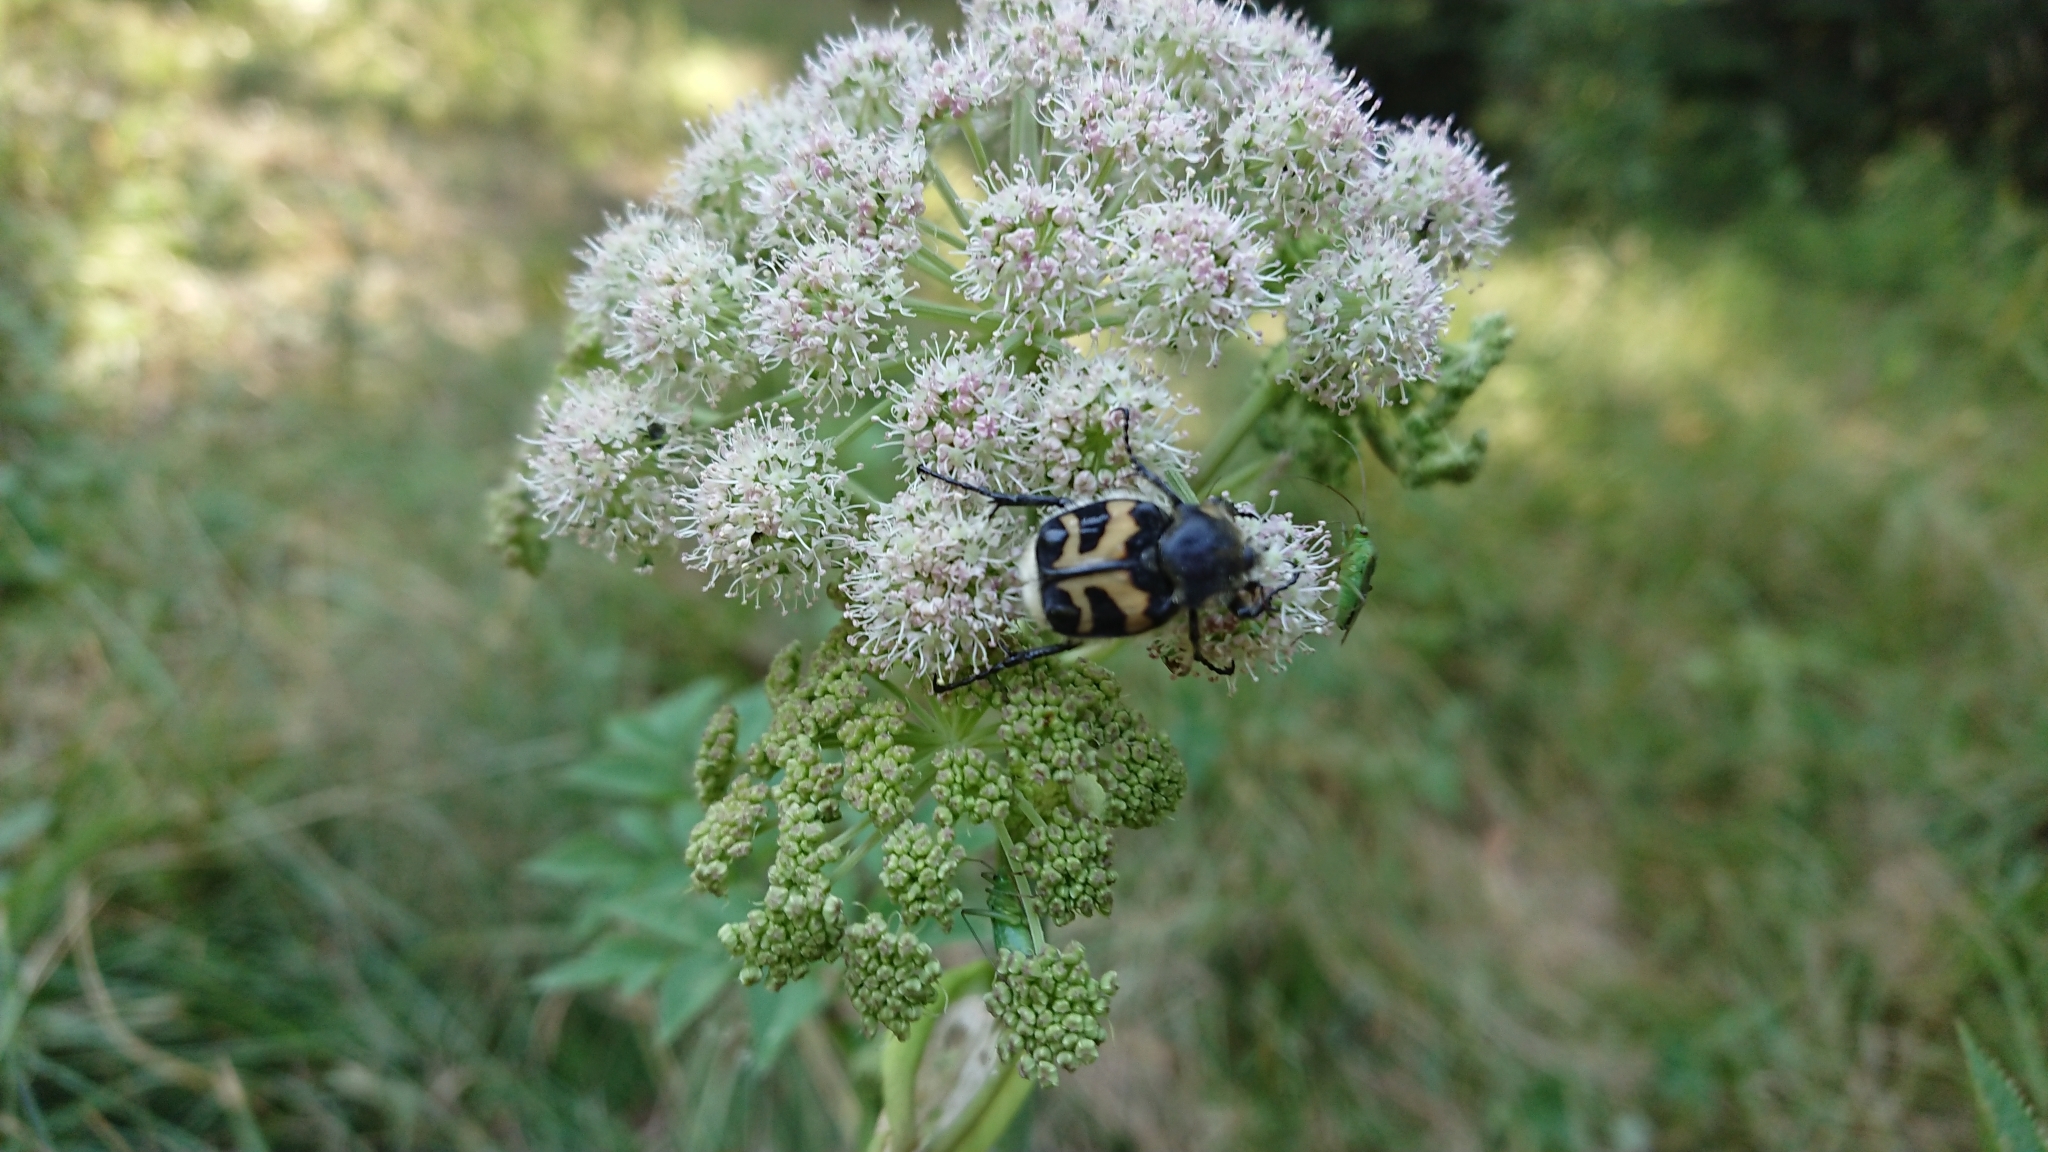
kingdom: Animalia
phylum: Arthropoda
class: Insecta
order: Coleoptera
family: Scarabaeidae
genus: Trichius
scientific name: Trichius fasciatus
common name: Bee beetle
